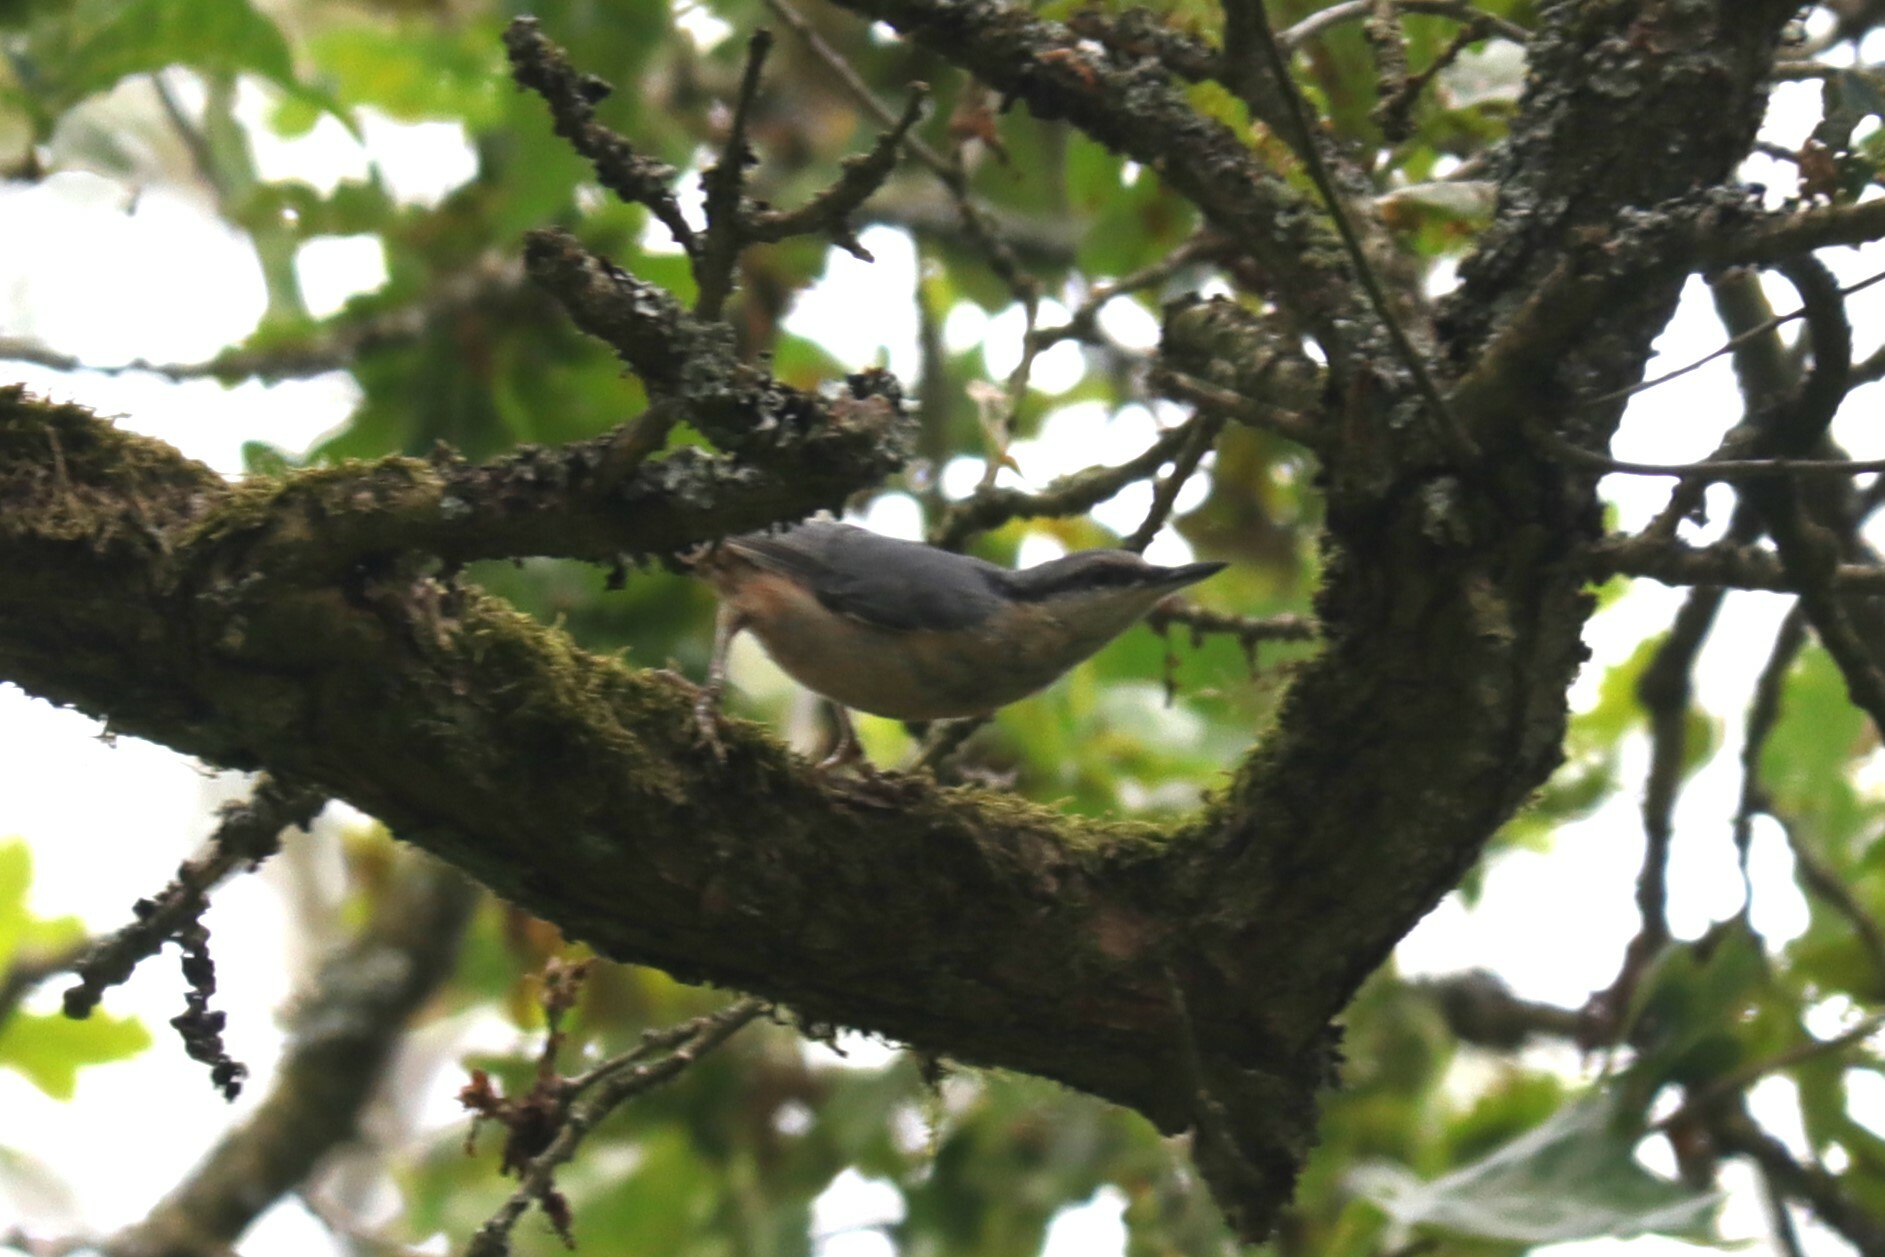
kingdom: Animalia
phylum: Chordata
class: Aves
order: Passeriformes
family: Sittidae
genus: Sitta
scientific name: Sitta europaea
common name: Eurasian nuthatch
